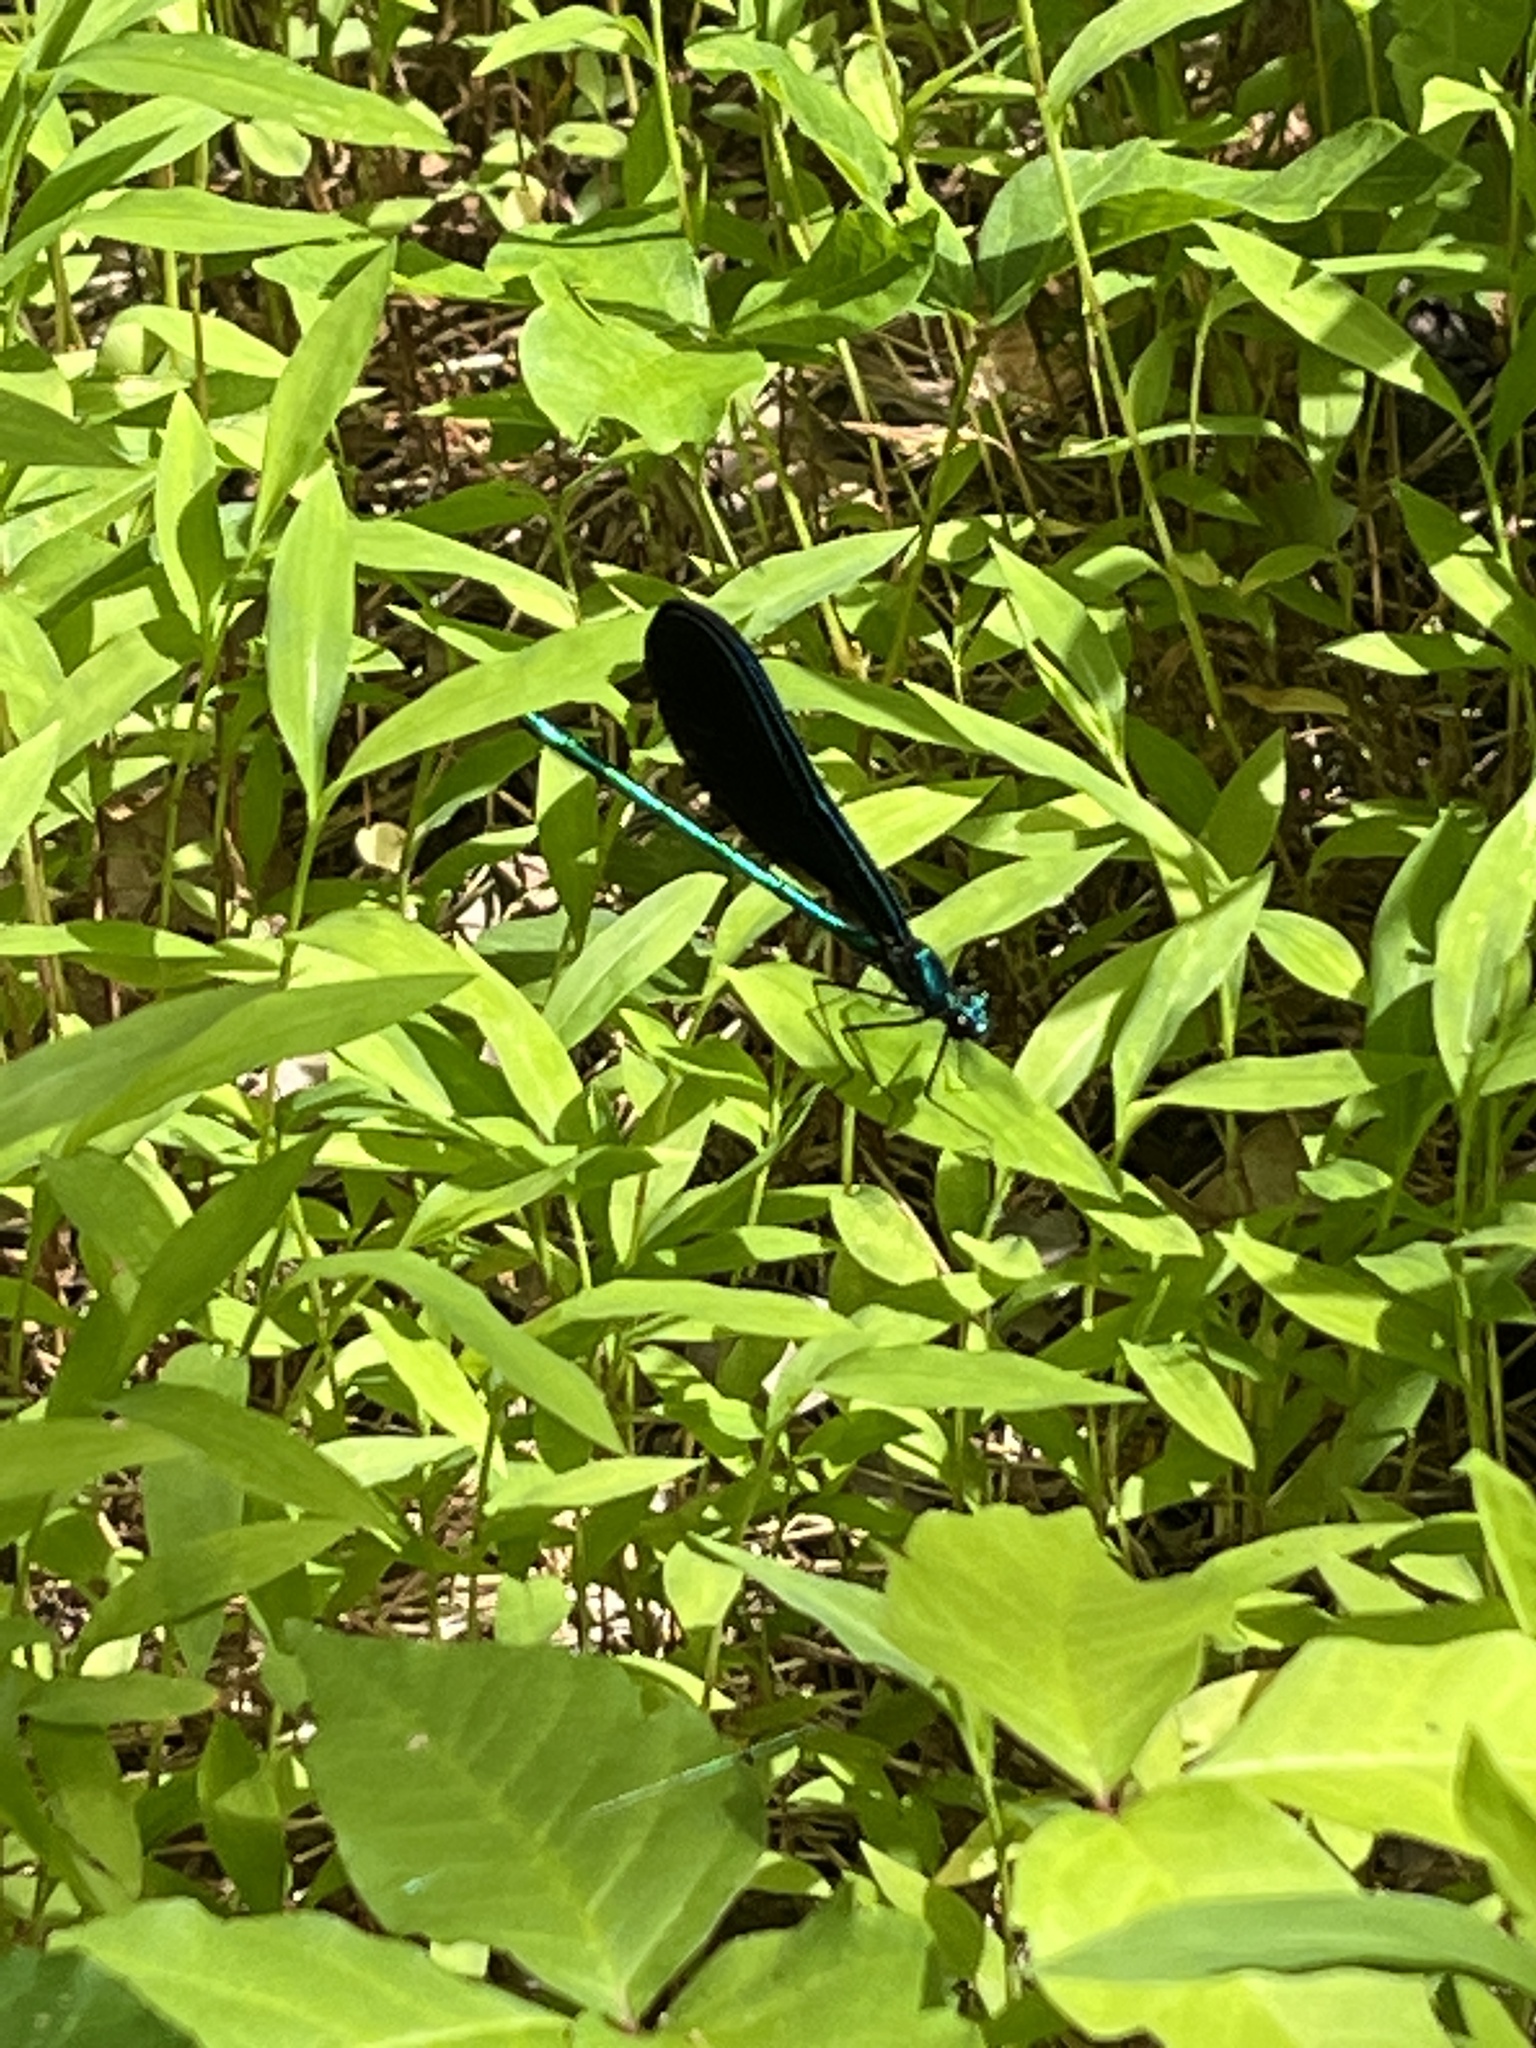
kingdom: Animalia
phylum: Arthropoda
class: Insecta
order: Odonata
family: Calopterygidae
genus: Calopteryx
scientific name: Calopteryx maculata
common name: Ebony jewelwing
